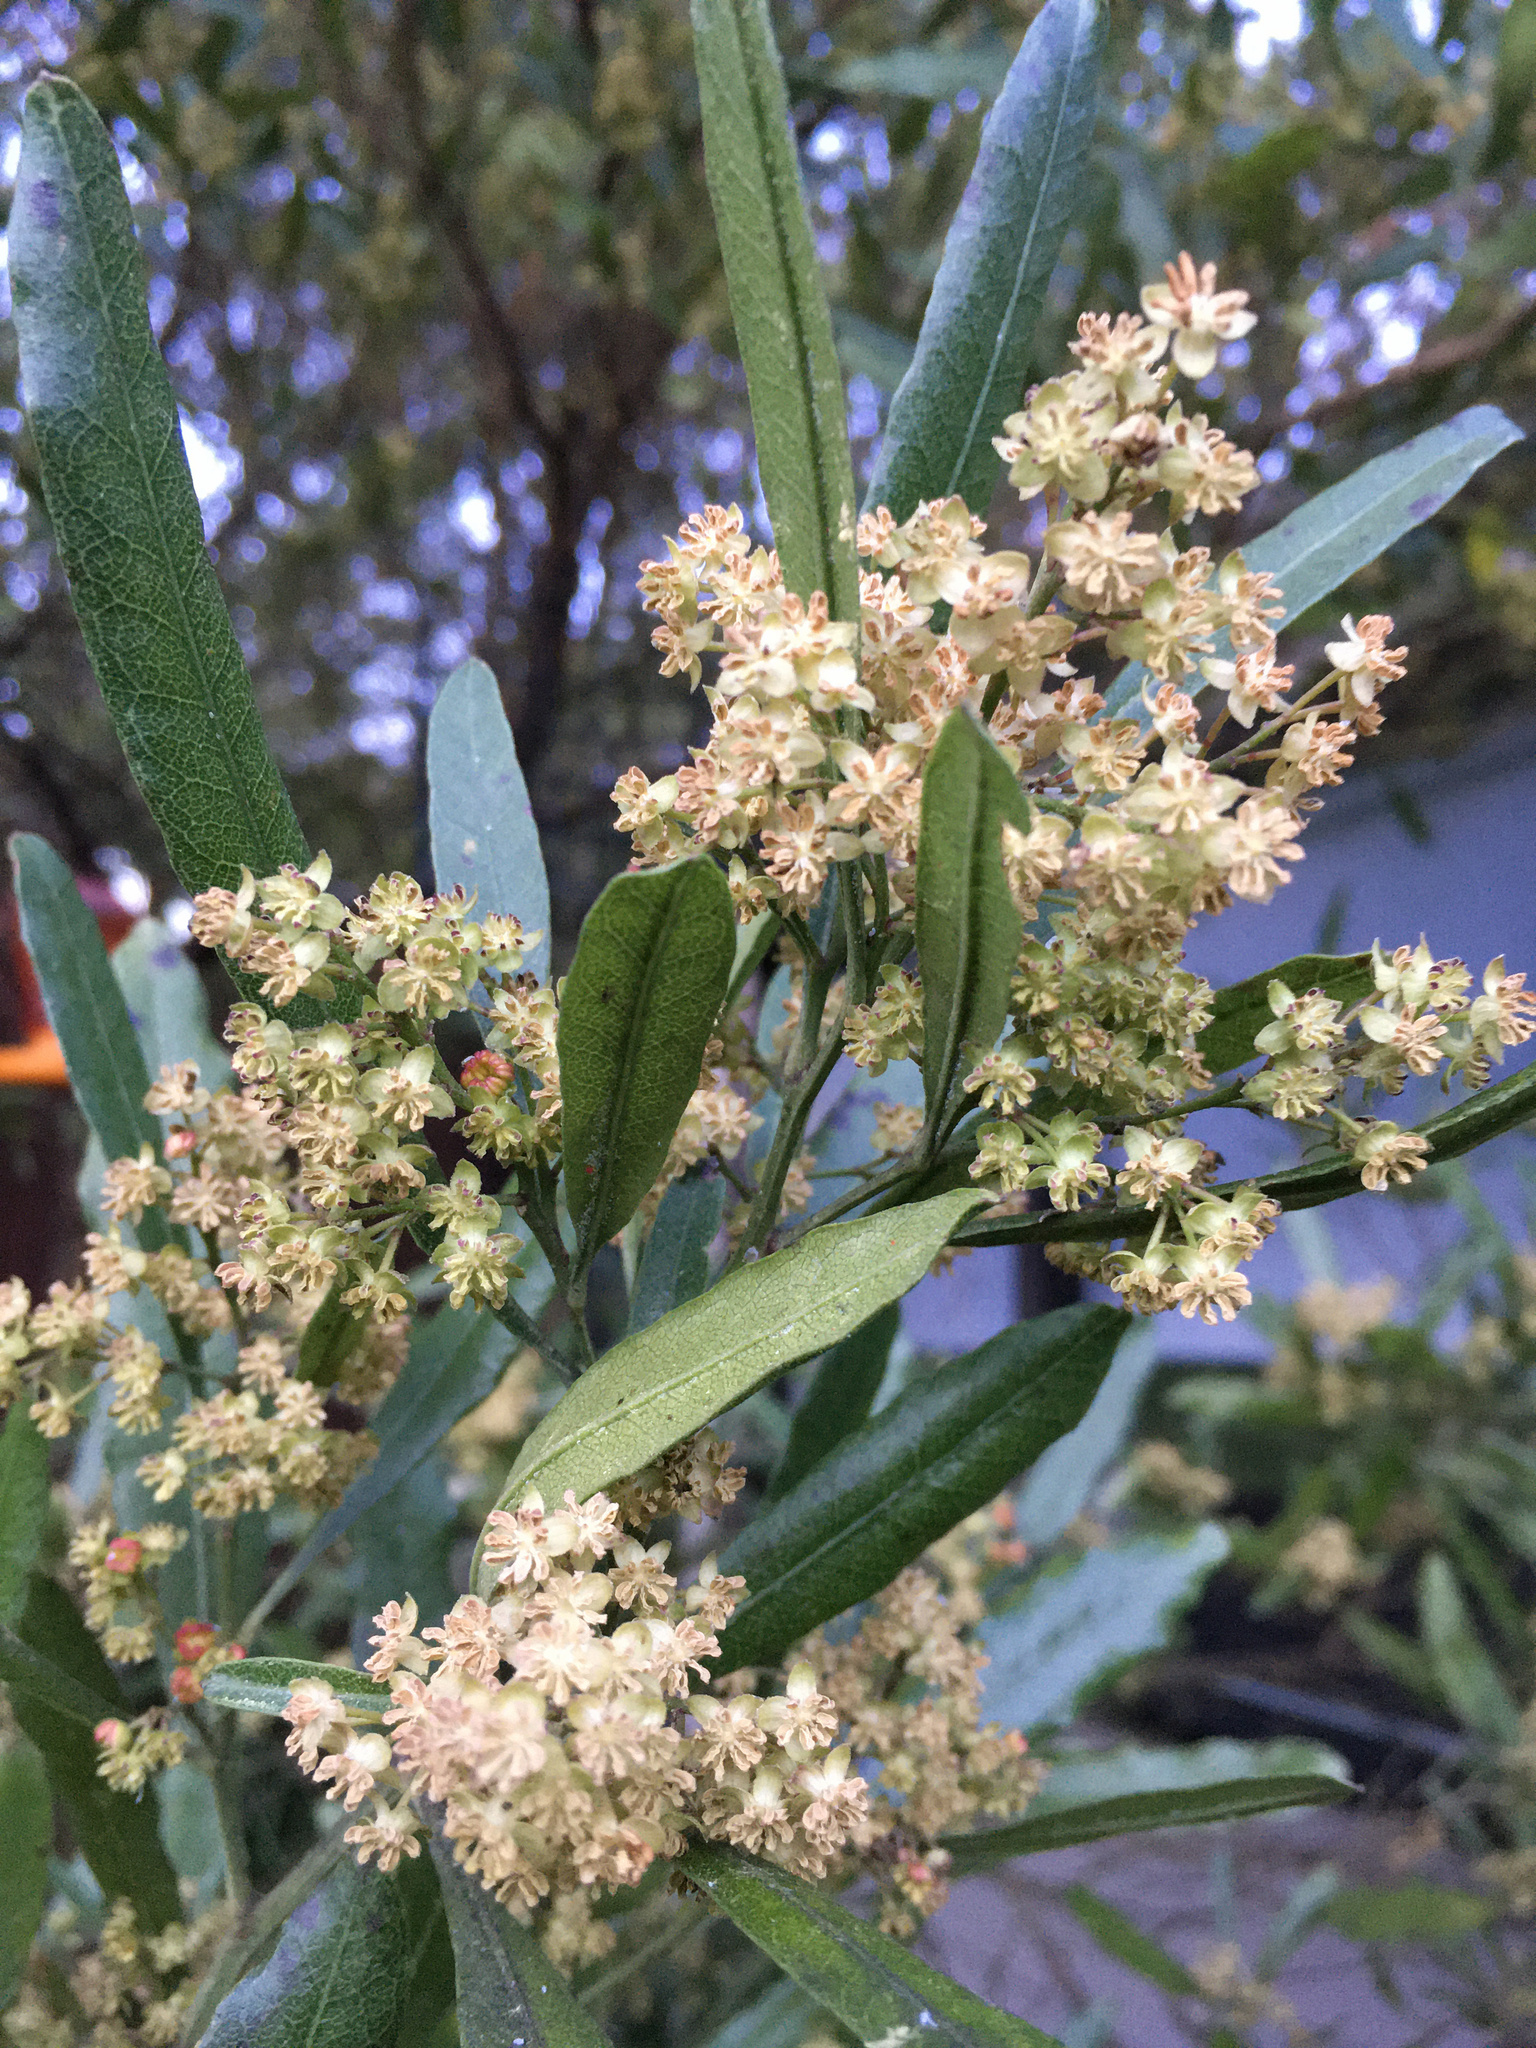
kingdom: Plantae
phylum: Tracheophyta
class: Magnoliopsida
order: Sapindales
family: Sapindaceae
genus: Dodonaea
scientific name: Dodonaea viscosa
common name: Hopbush
